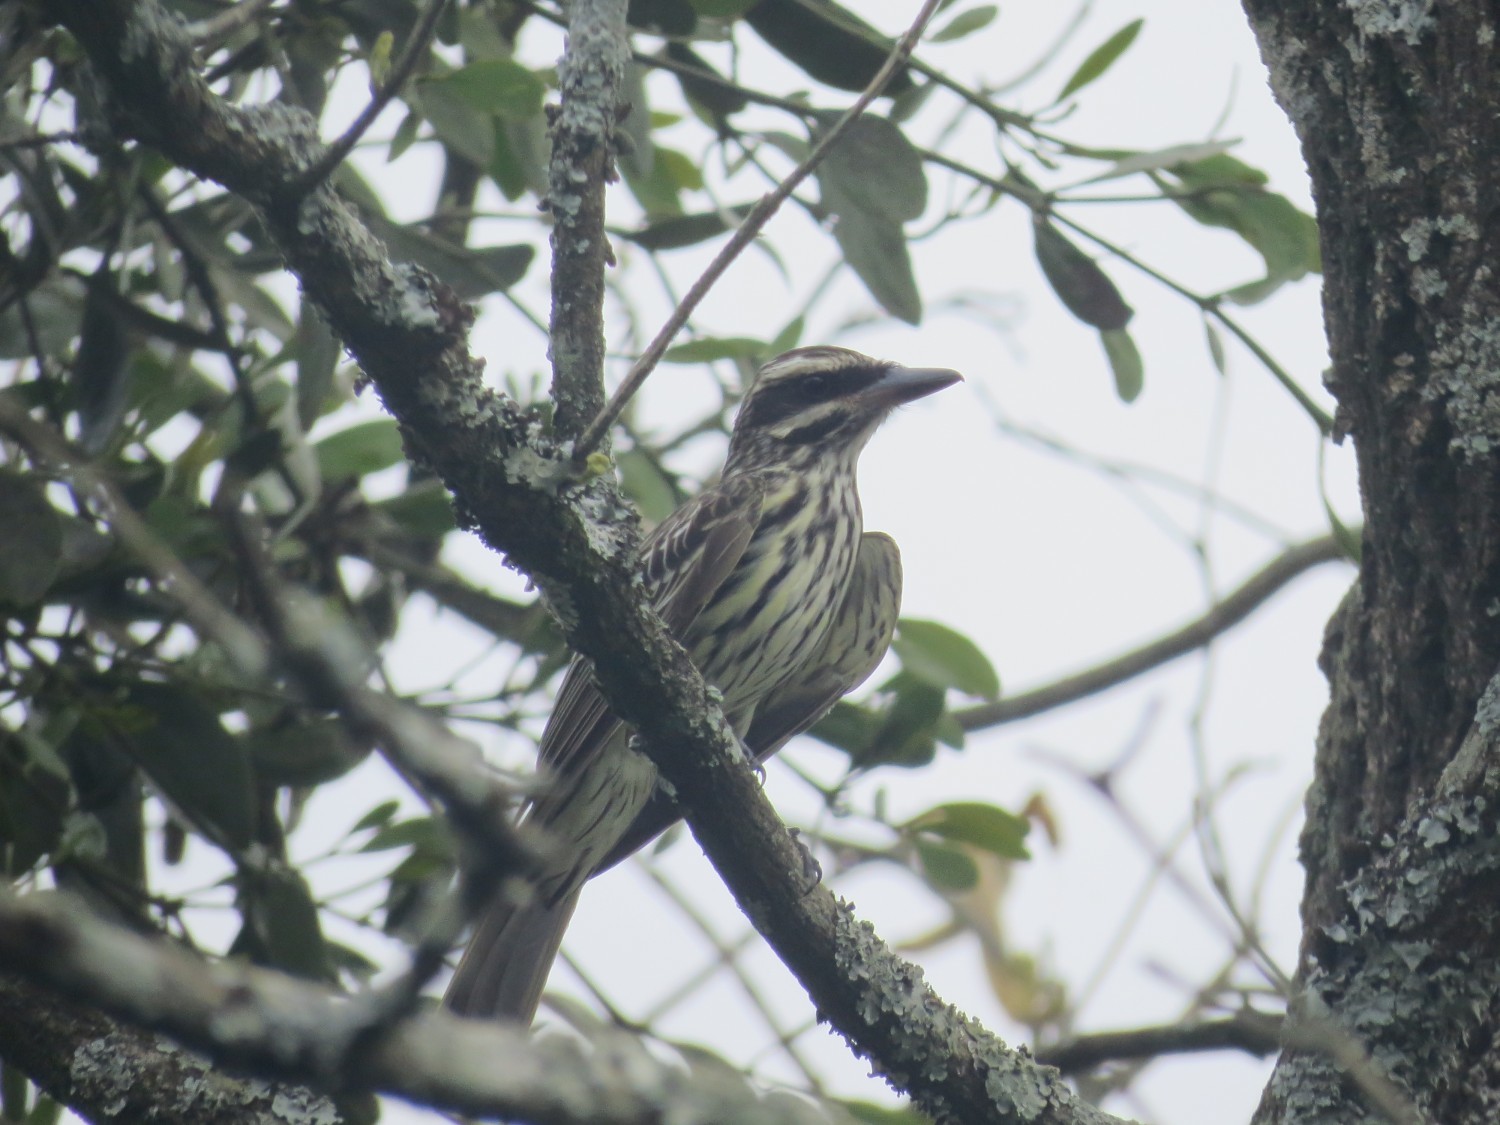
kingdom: Animalia
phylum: Chordata
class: Aves
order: Passeriformes
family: Tyrannidae
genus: Myiodynastes
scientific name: Myiodynastes maculatus
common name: Streaked flycatcher
